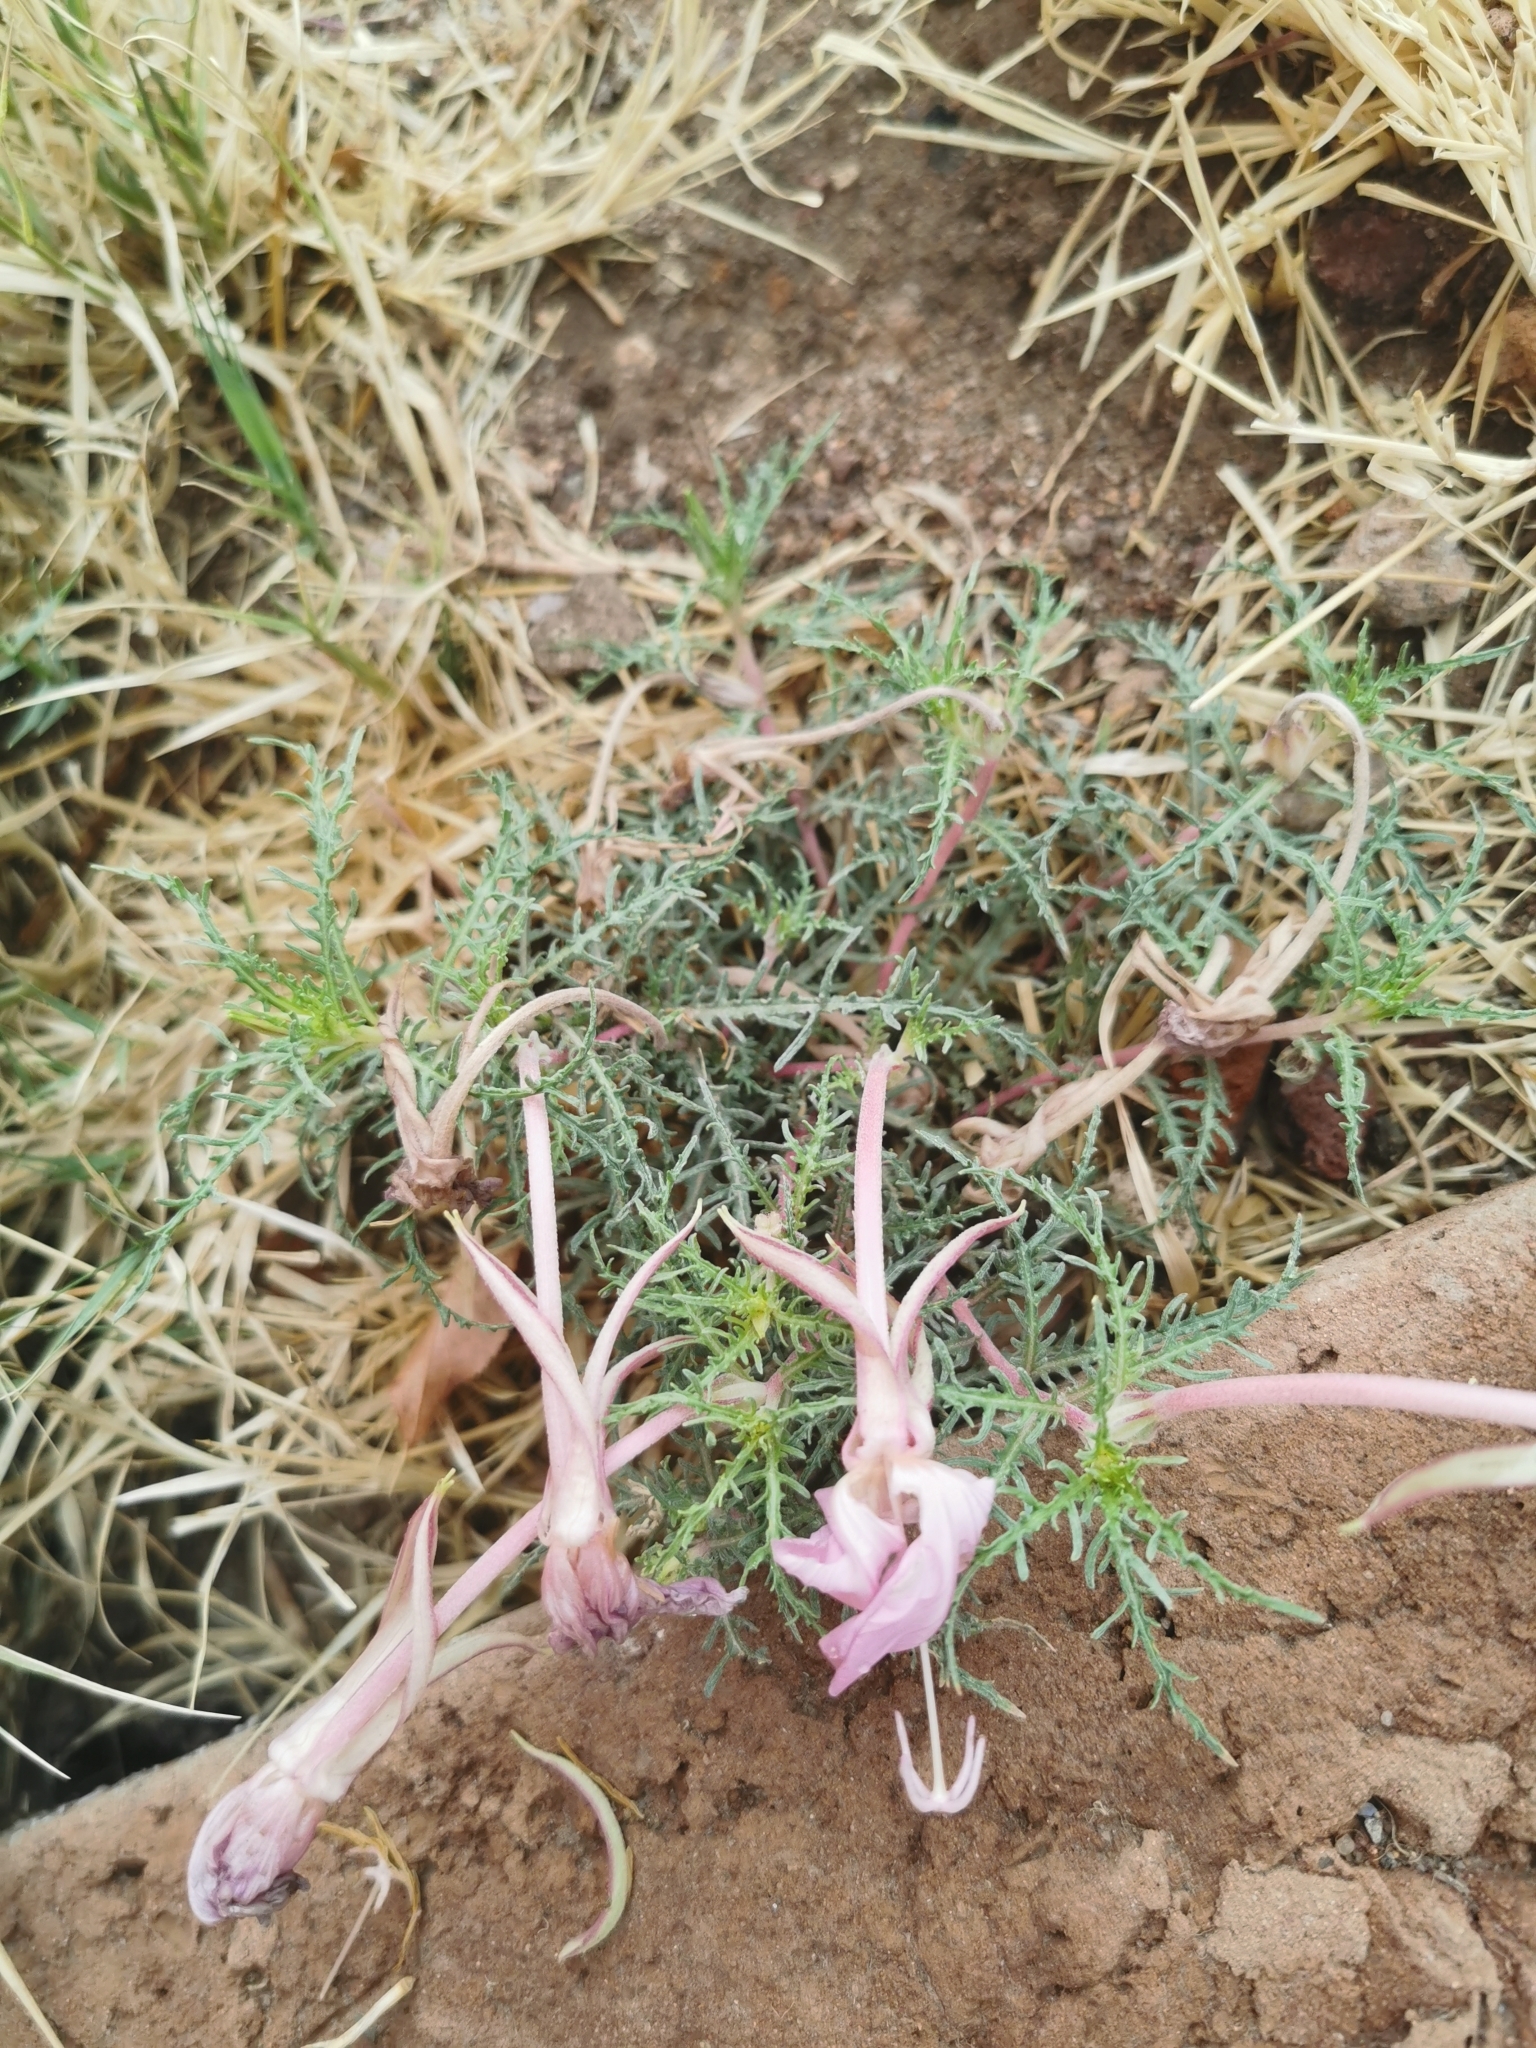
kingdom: Plantae
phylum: Tracheophyta
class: Magnoliopsida
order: Myrtales
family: Onagraceae
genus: Oenothera
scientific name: Oenothera dissecta
